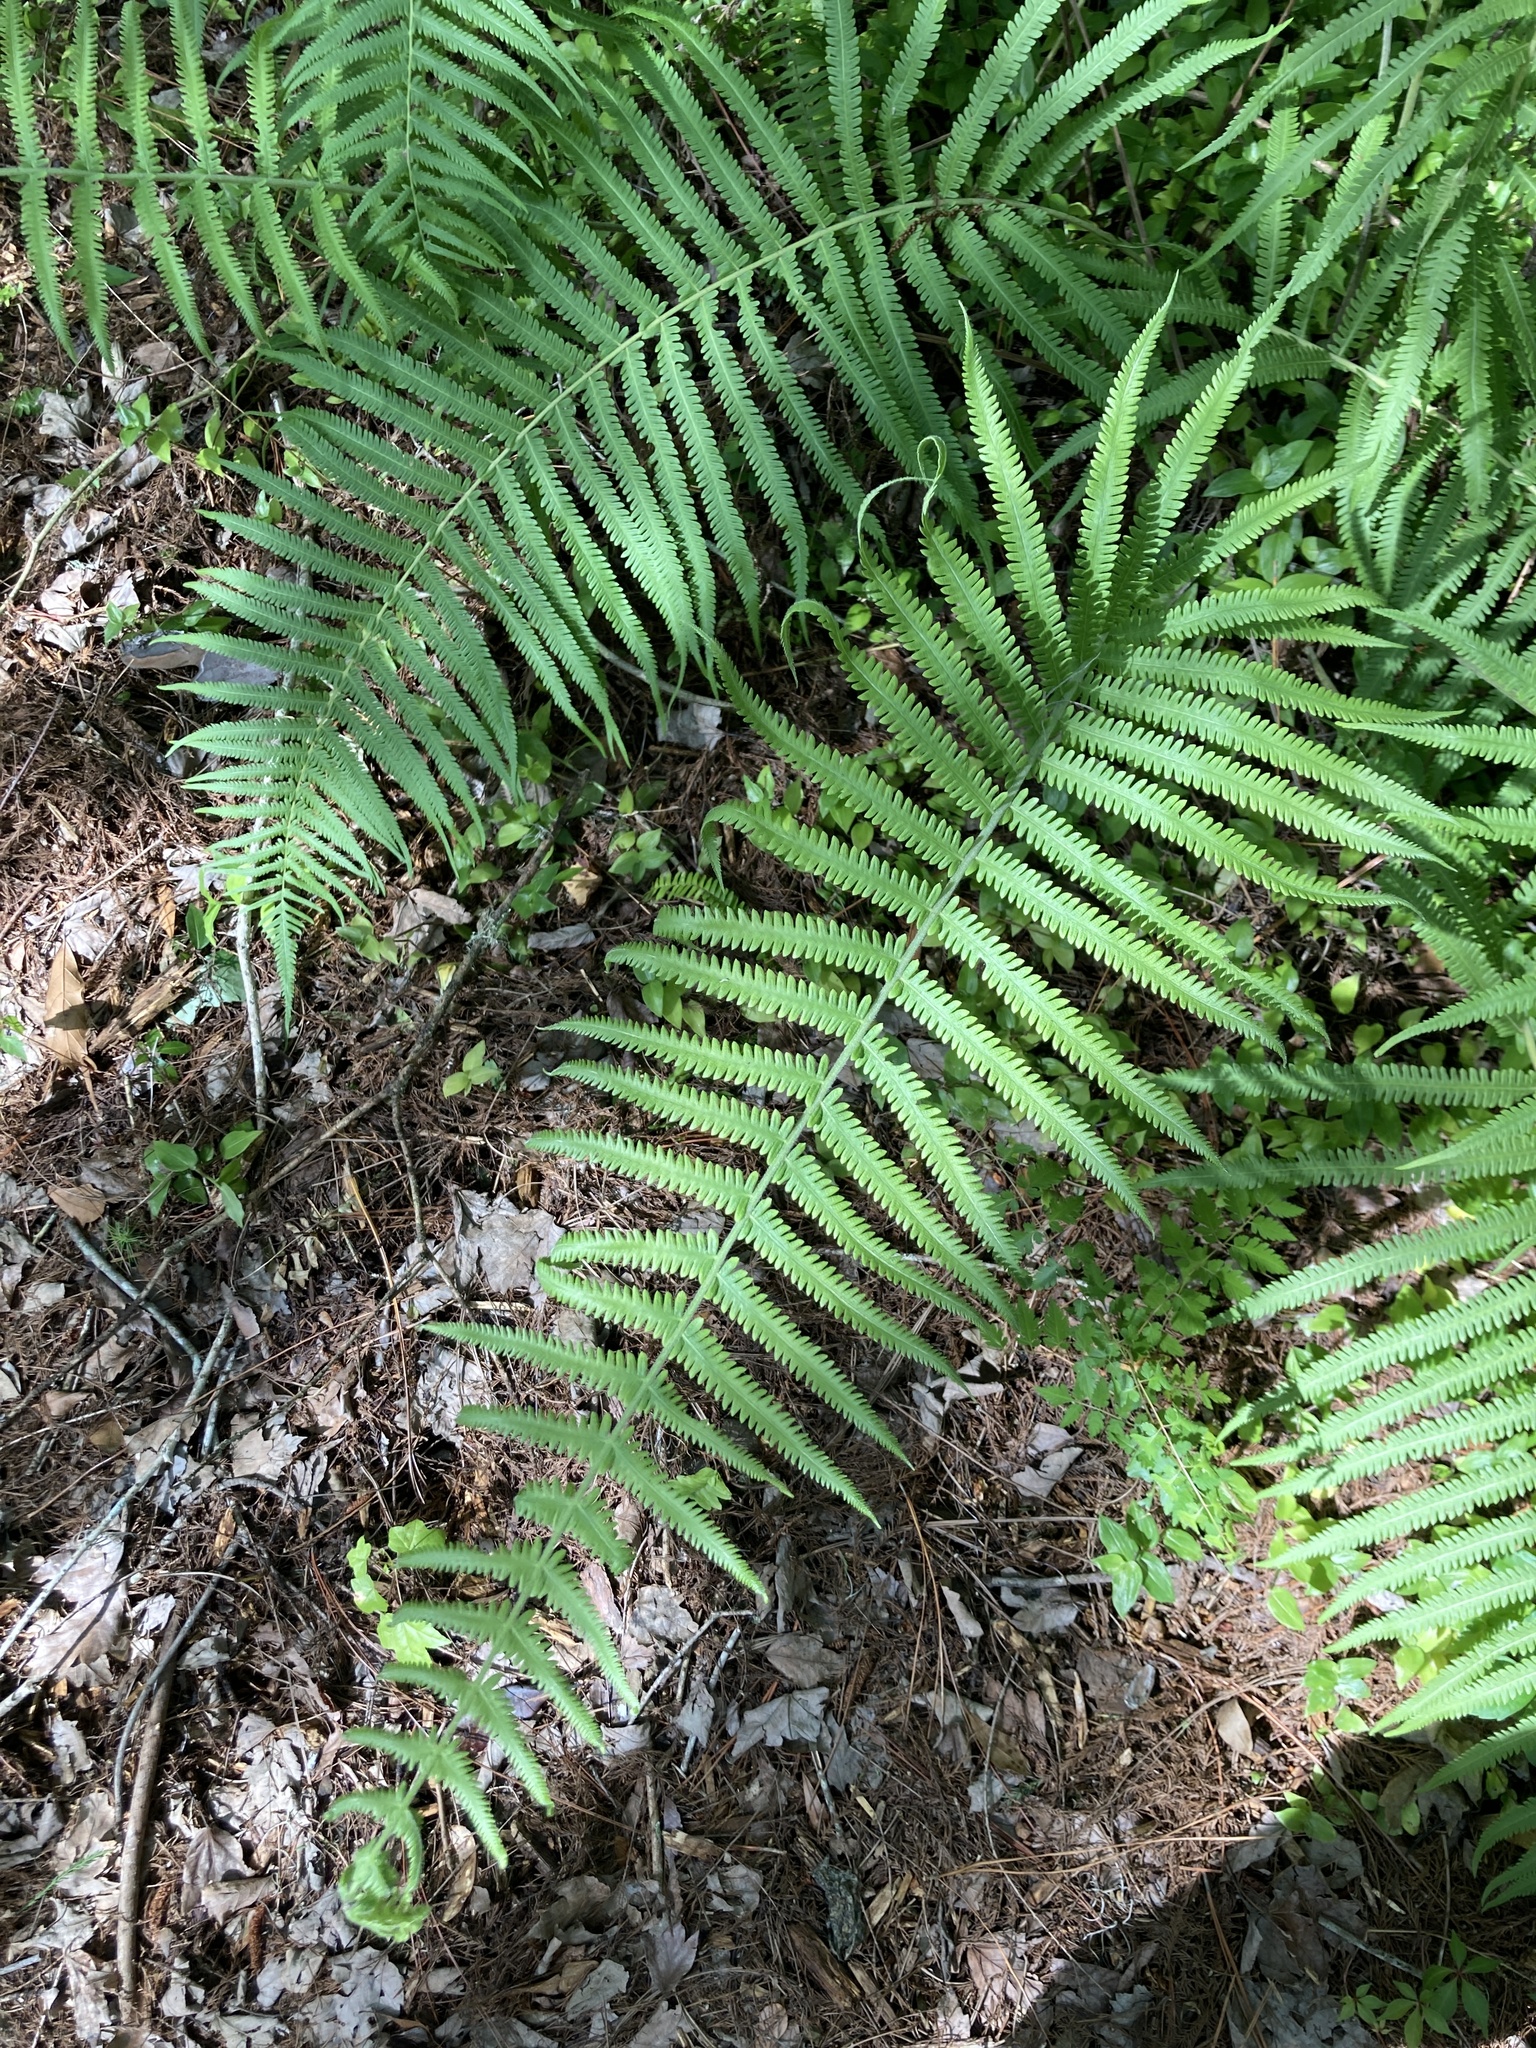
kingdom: Plantae
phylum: Tracheophyta
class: Polypodiopsida
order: Polypodiales
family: Thelypteridaceae
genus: Pelazoneuron
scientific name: Pelazoneuron kunthii
